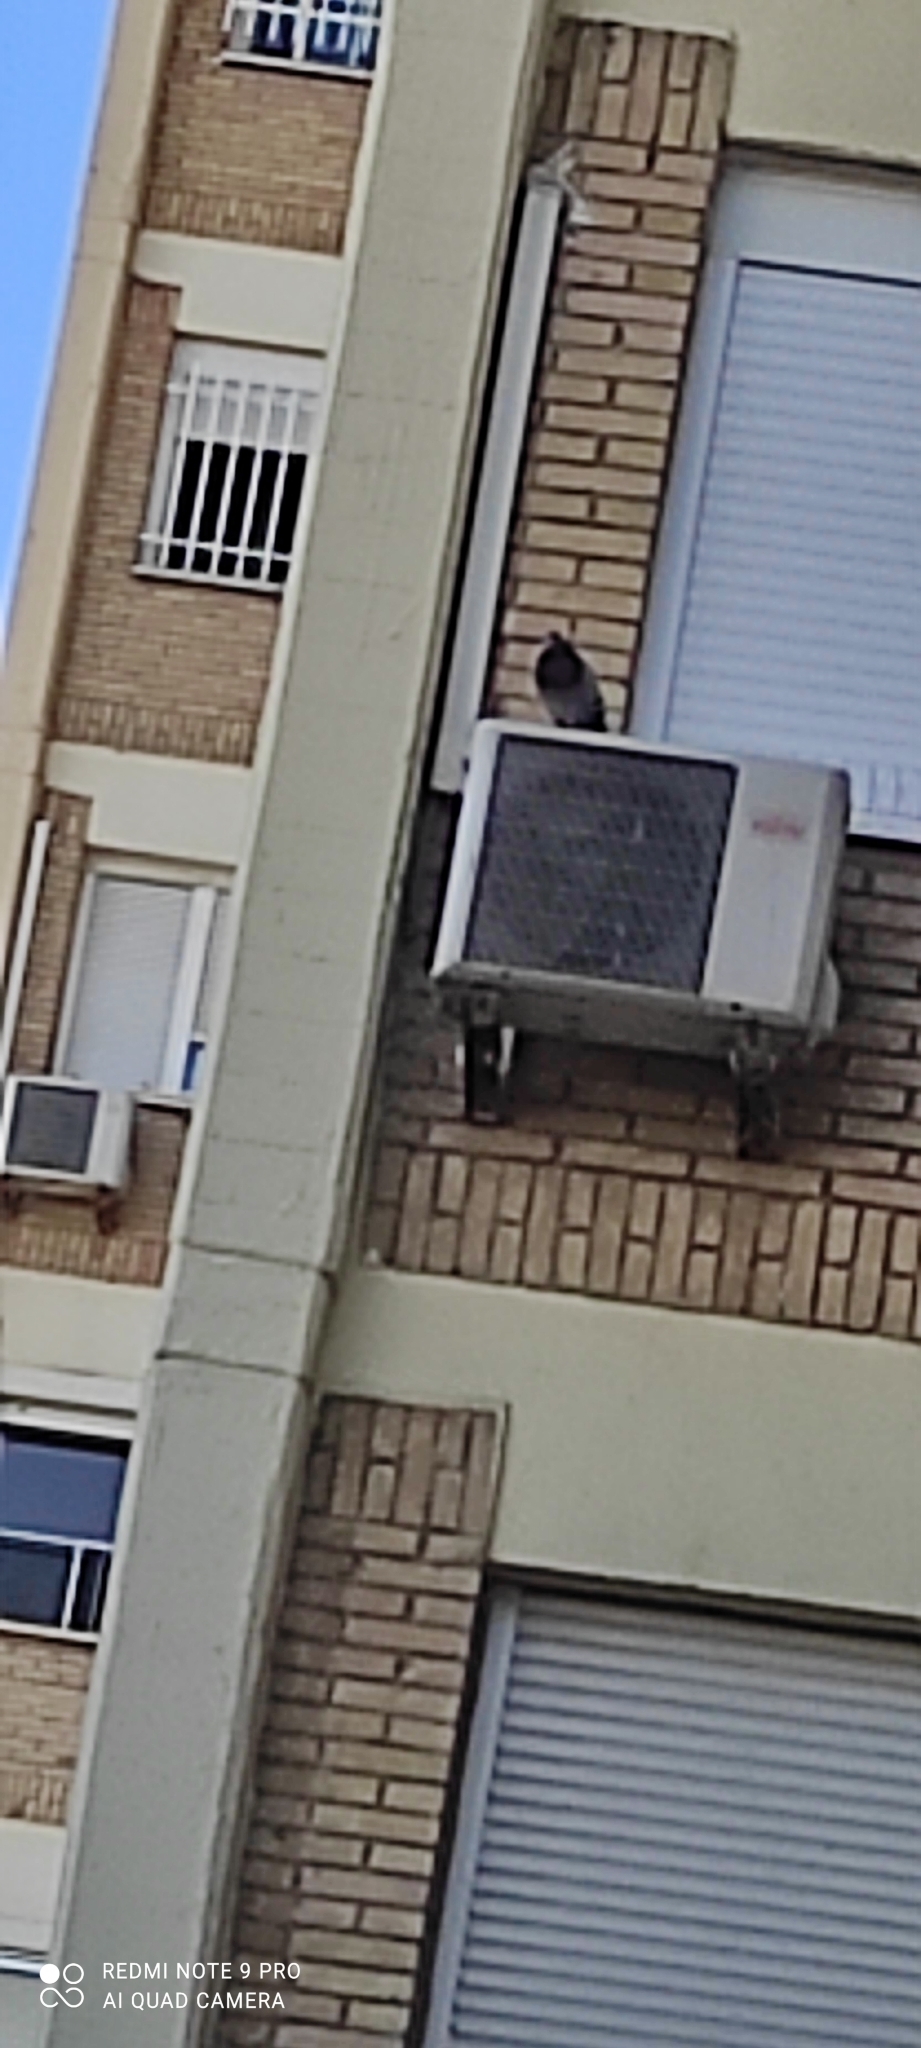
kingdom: Animalia
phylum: Chordata
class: Aves
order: Columbiformes
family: Columbidae
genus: Columba
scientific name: Columba livia
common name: Rock pigeon
